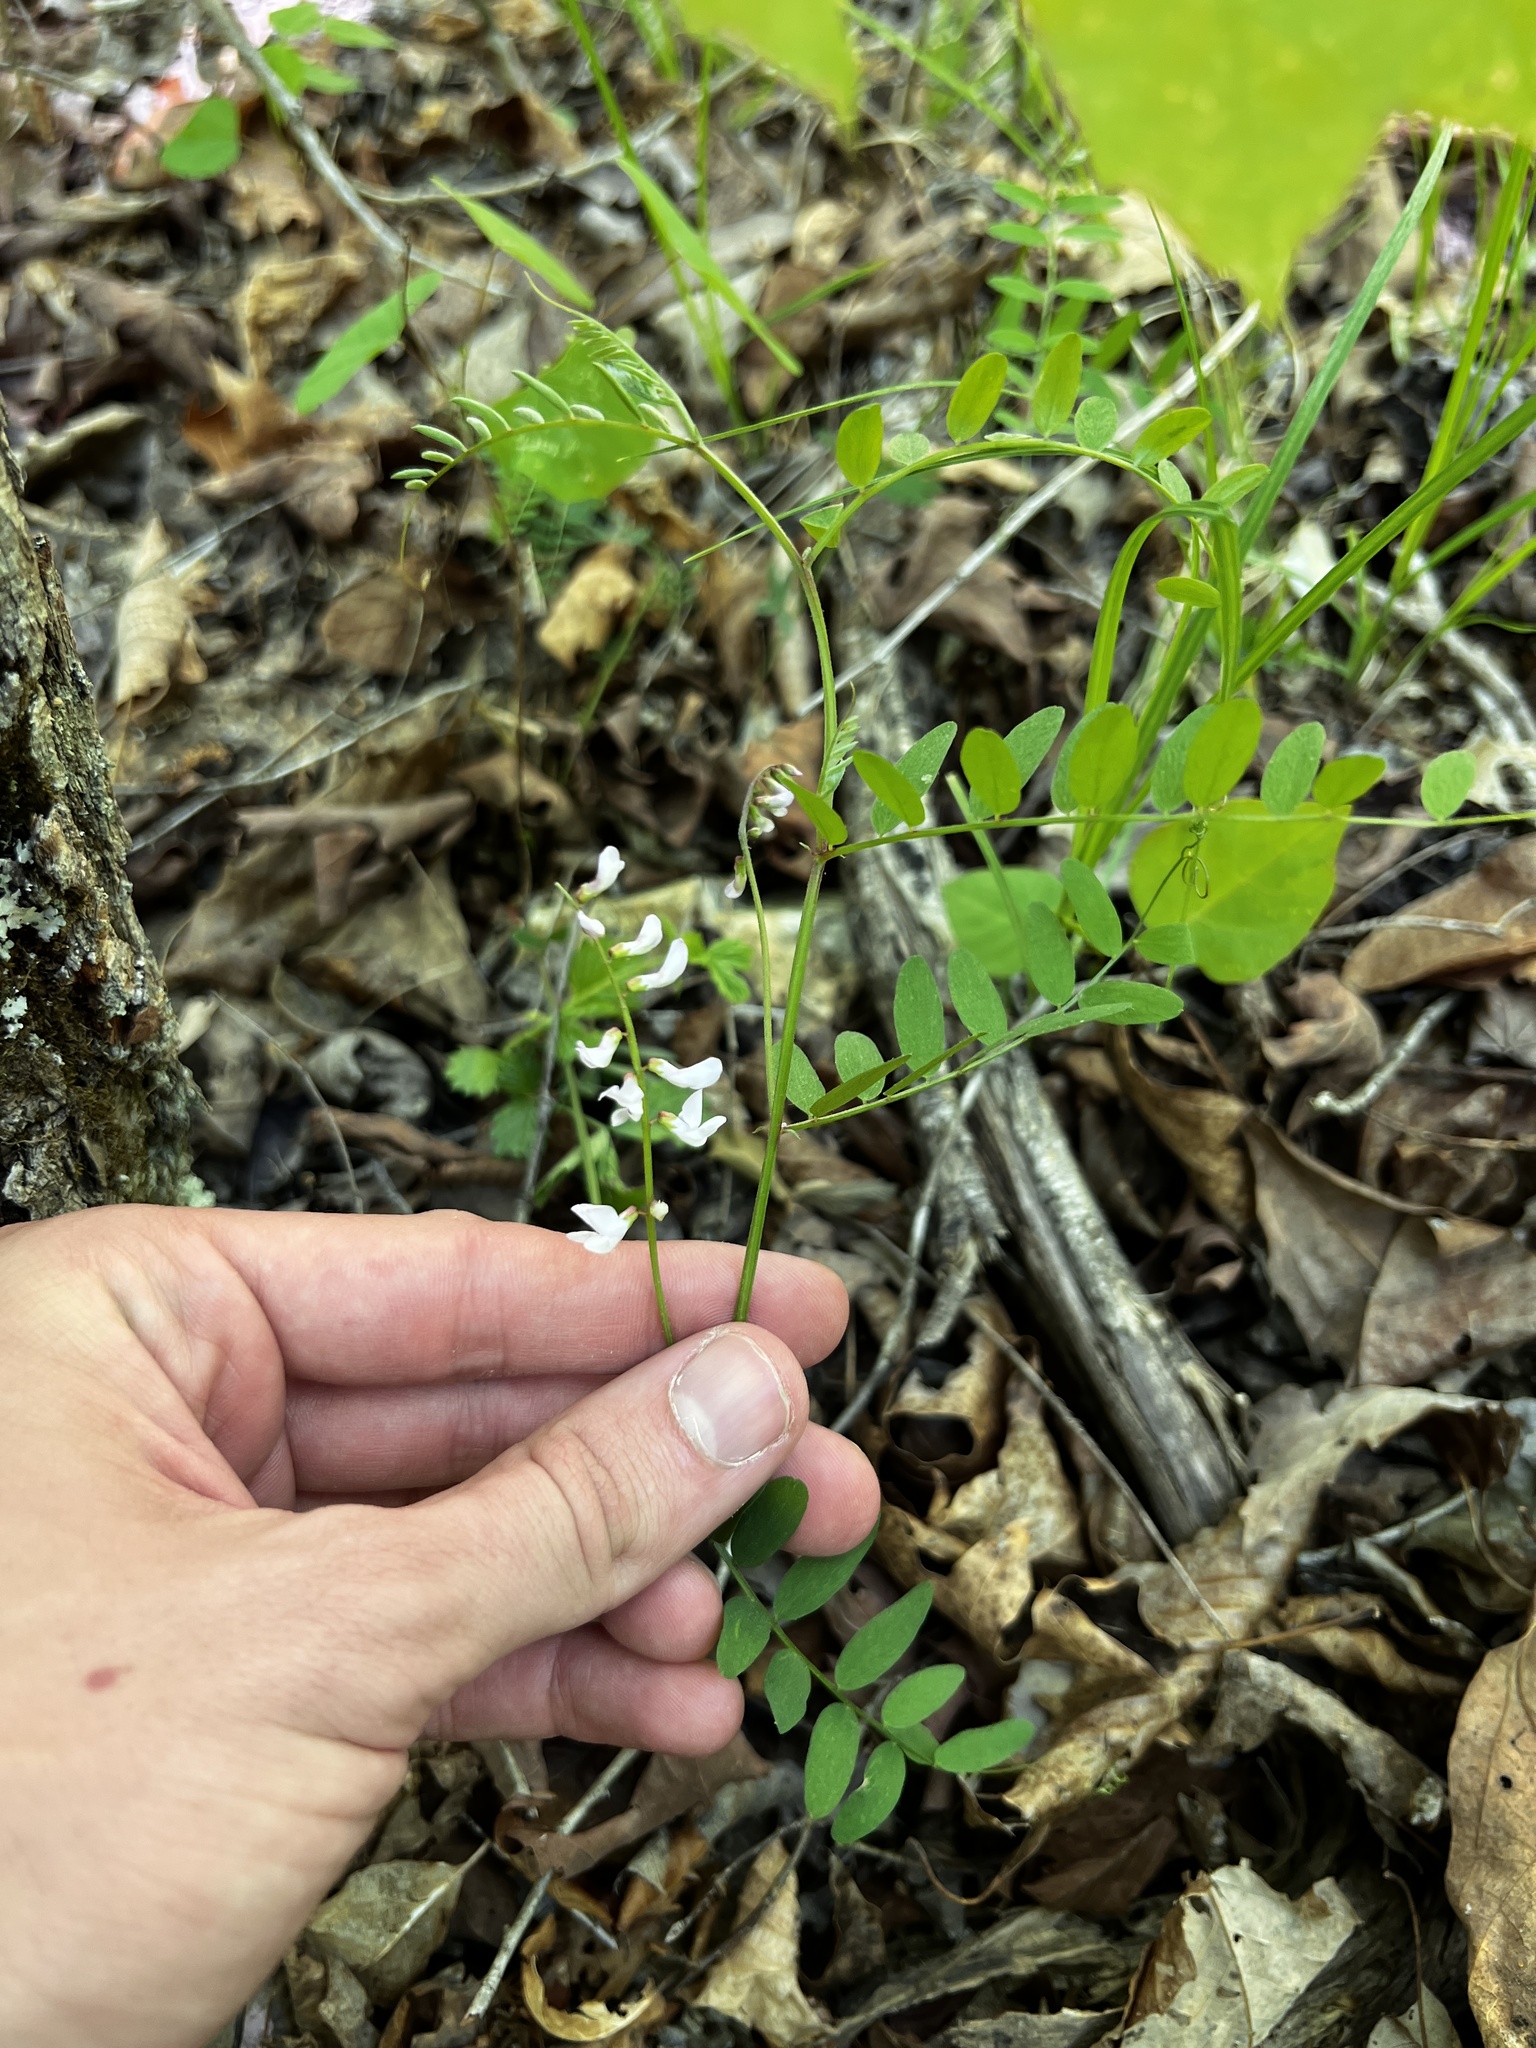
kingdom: Plantae
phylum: Tracheophyta
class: Magnoliopsida
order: Fabales
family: Fabaceae
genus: Vicia
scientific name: Vicia caroliniana
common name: Carolina vetch
